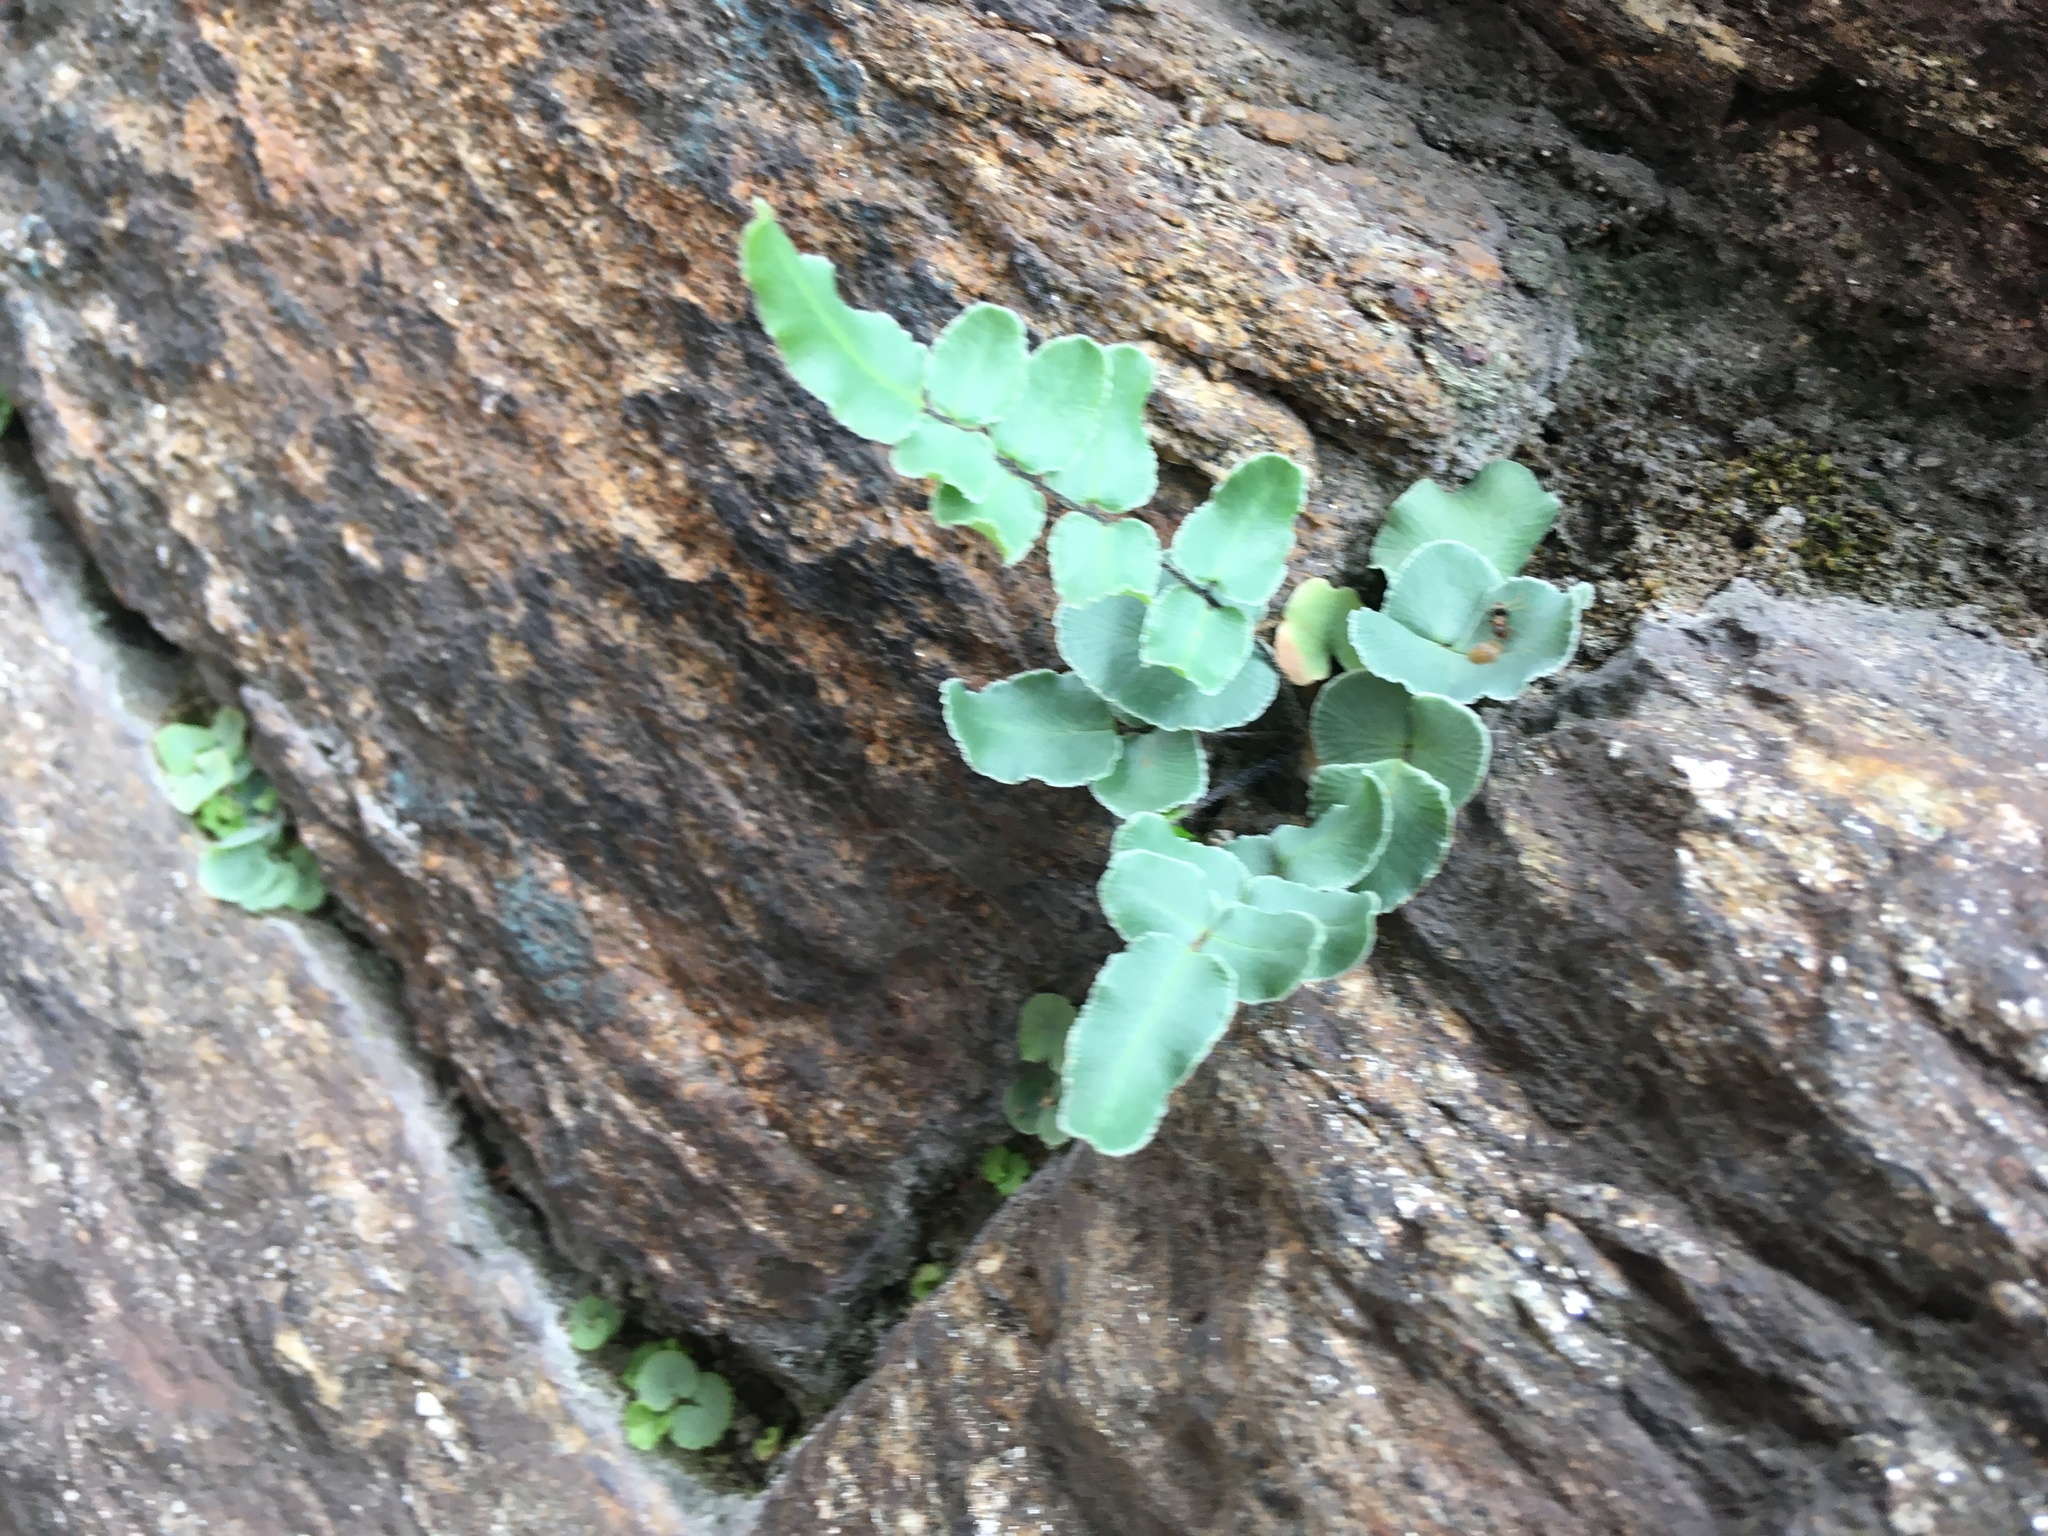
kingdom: Plantae
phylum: Tracheophyta
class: Polypodiopsida
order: Polypodiales
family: Pteridaceae
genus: Pellaea
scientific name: Pellaea atropurpurea
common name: Hairy cliffbrake
